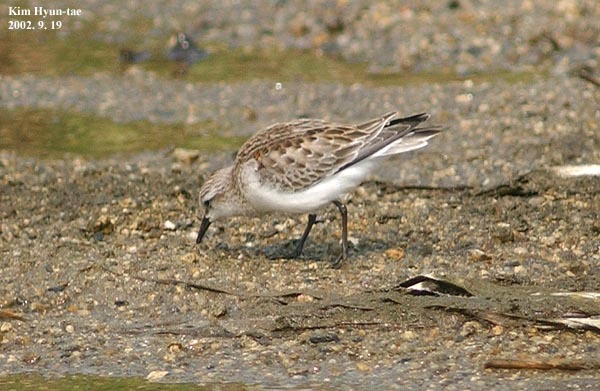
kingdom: Animalia
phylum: Chordata
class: Aves
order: Charadriiformes
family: Scolopacidae
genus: Calidris
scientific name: Calidris ruficollis
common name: Red-necked stint
